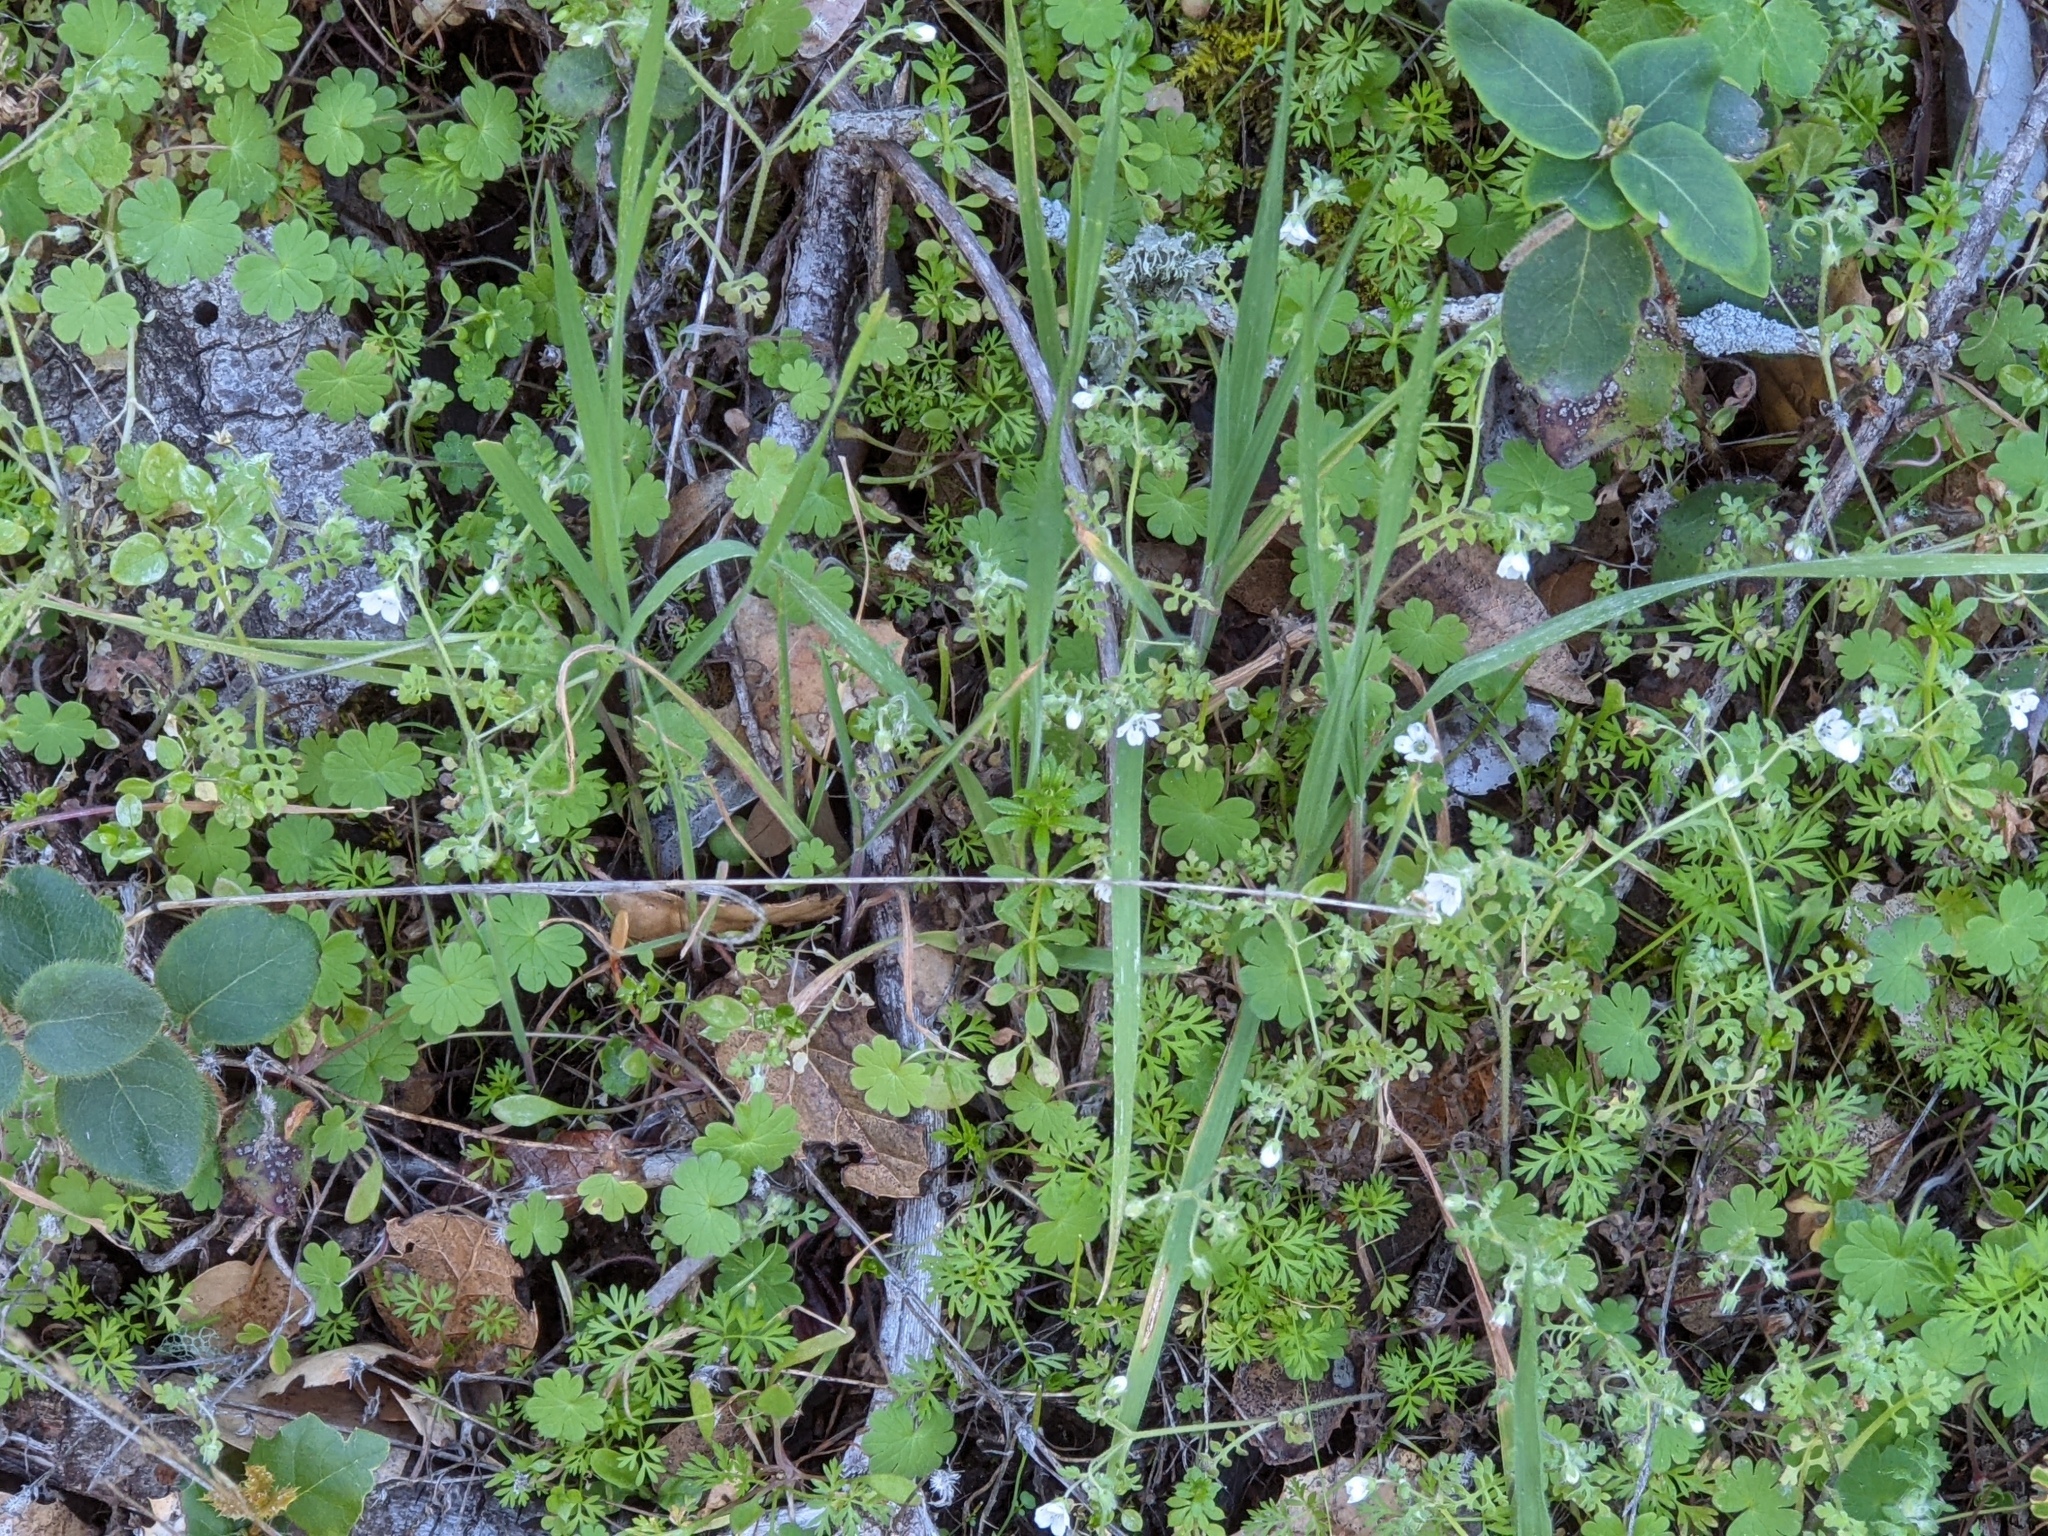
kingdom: Plantae
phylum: Tracheophyta
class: Magnoliopsida
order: Boraginales
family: Hydrophyllaceae
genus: Nemophila
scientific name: Nemophila heterophylla
